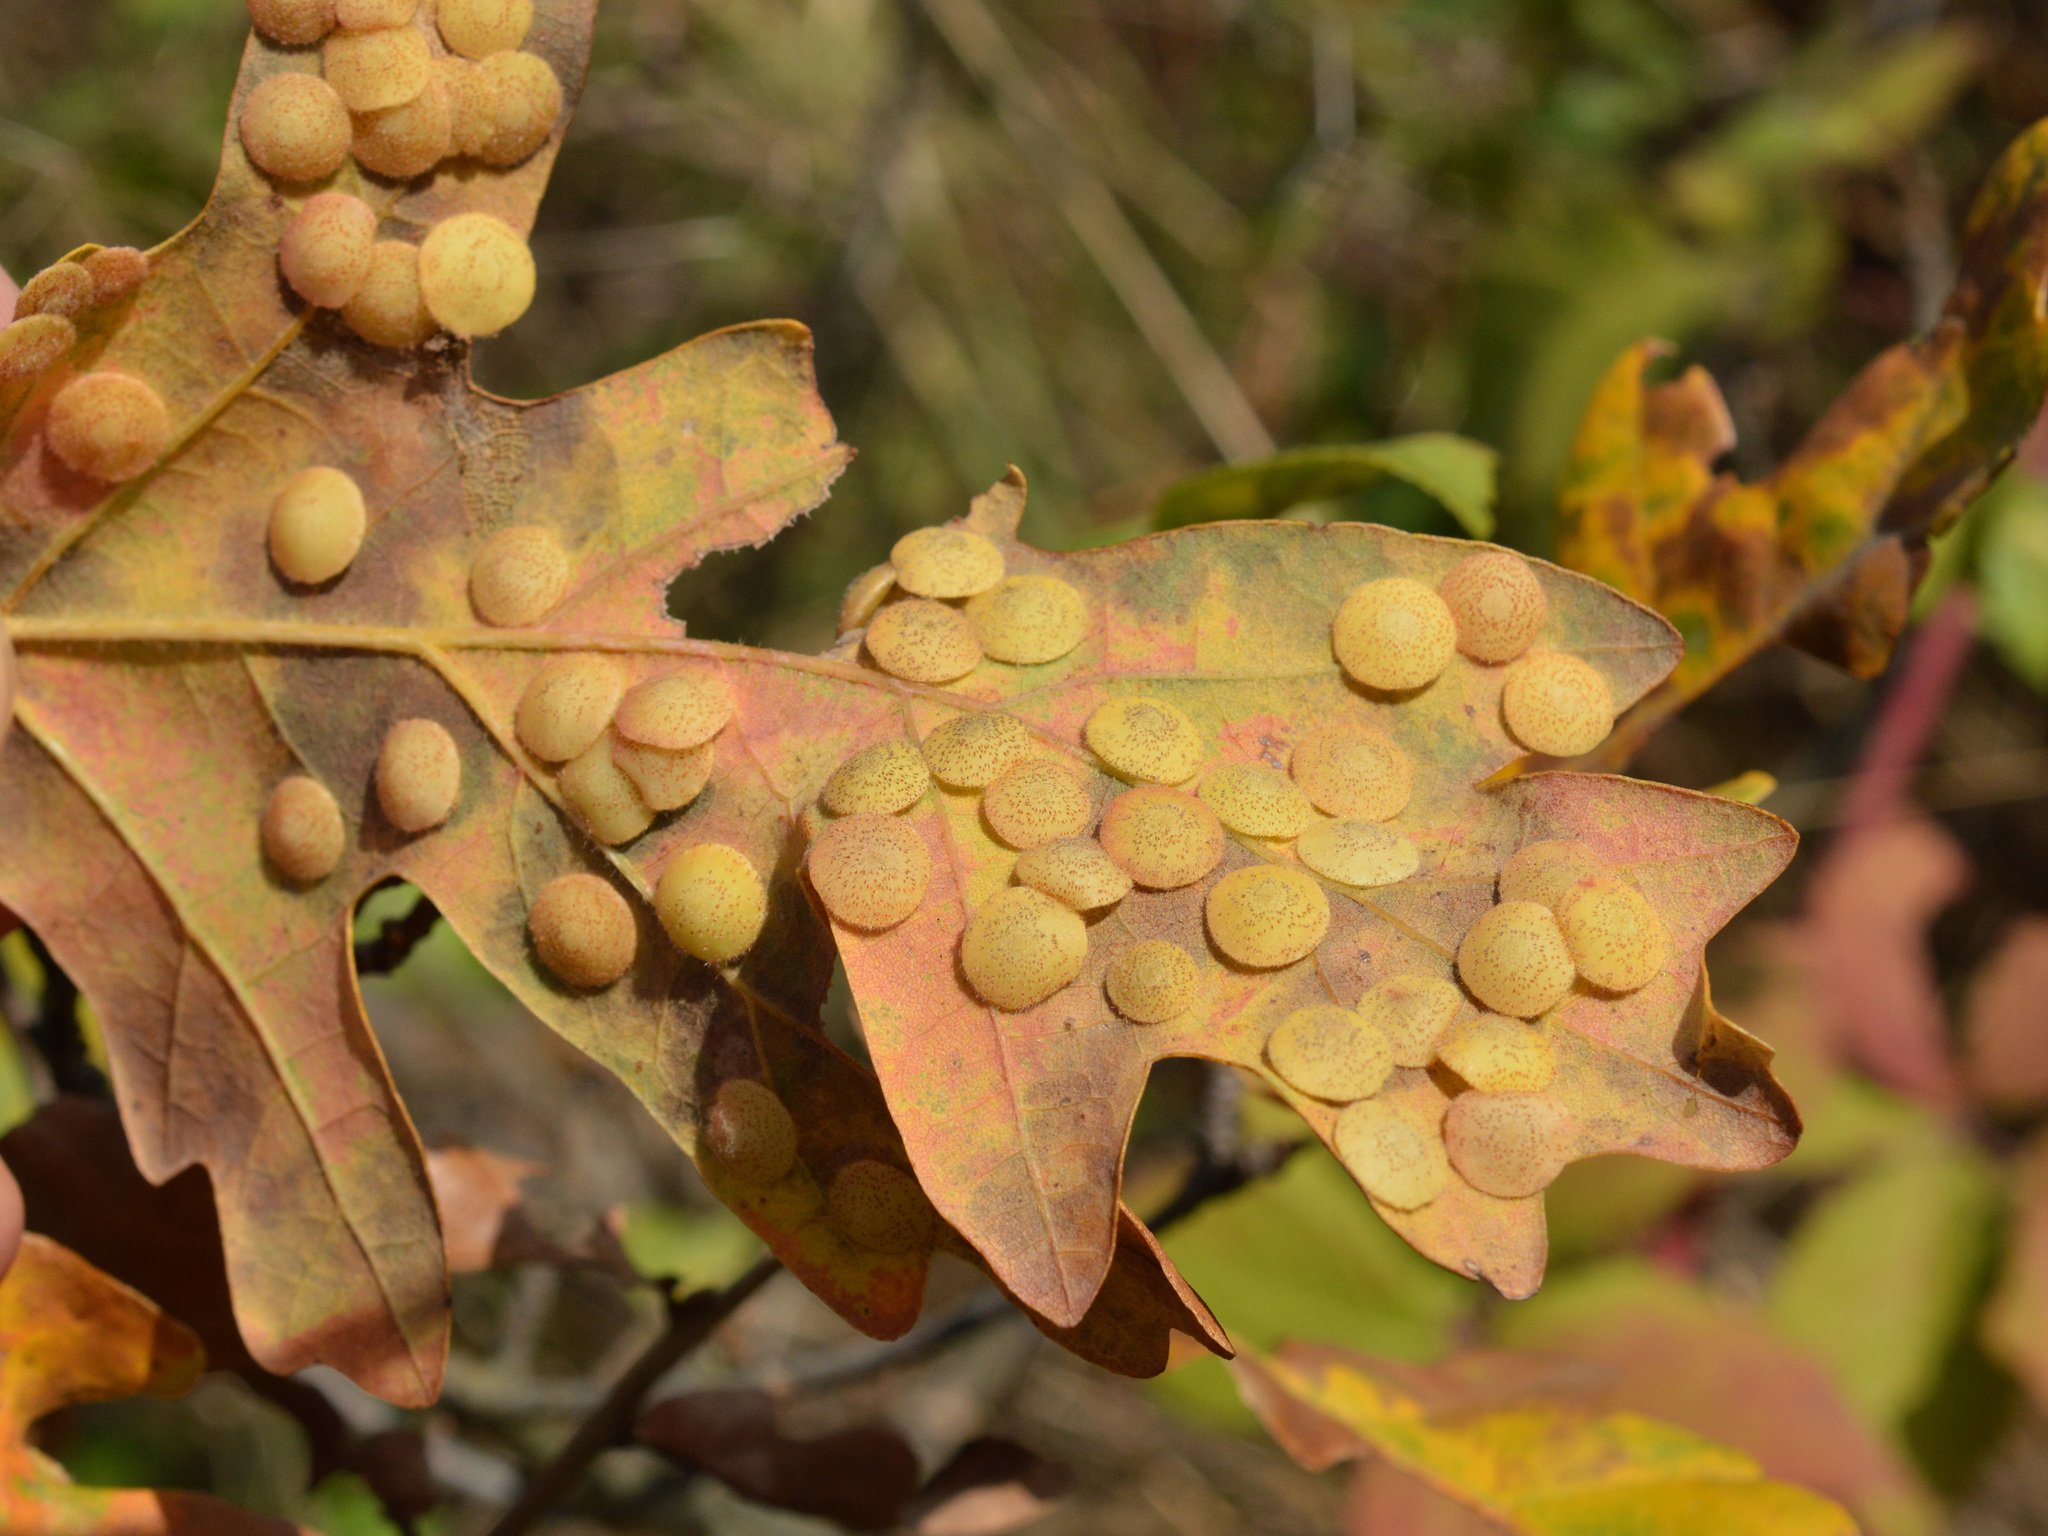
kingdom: Animalia
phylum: Arthropoda
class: Insecta
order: Hymenoptera
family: Cynipidae
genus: Neuroterus
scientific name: Neuroterus quercusbaccarum
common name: Common spangle gall
